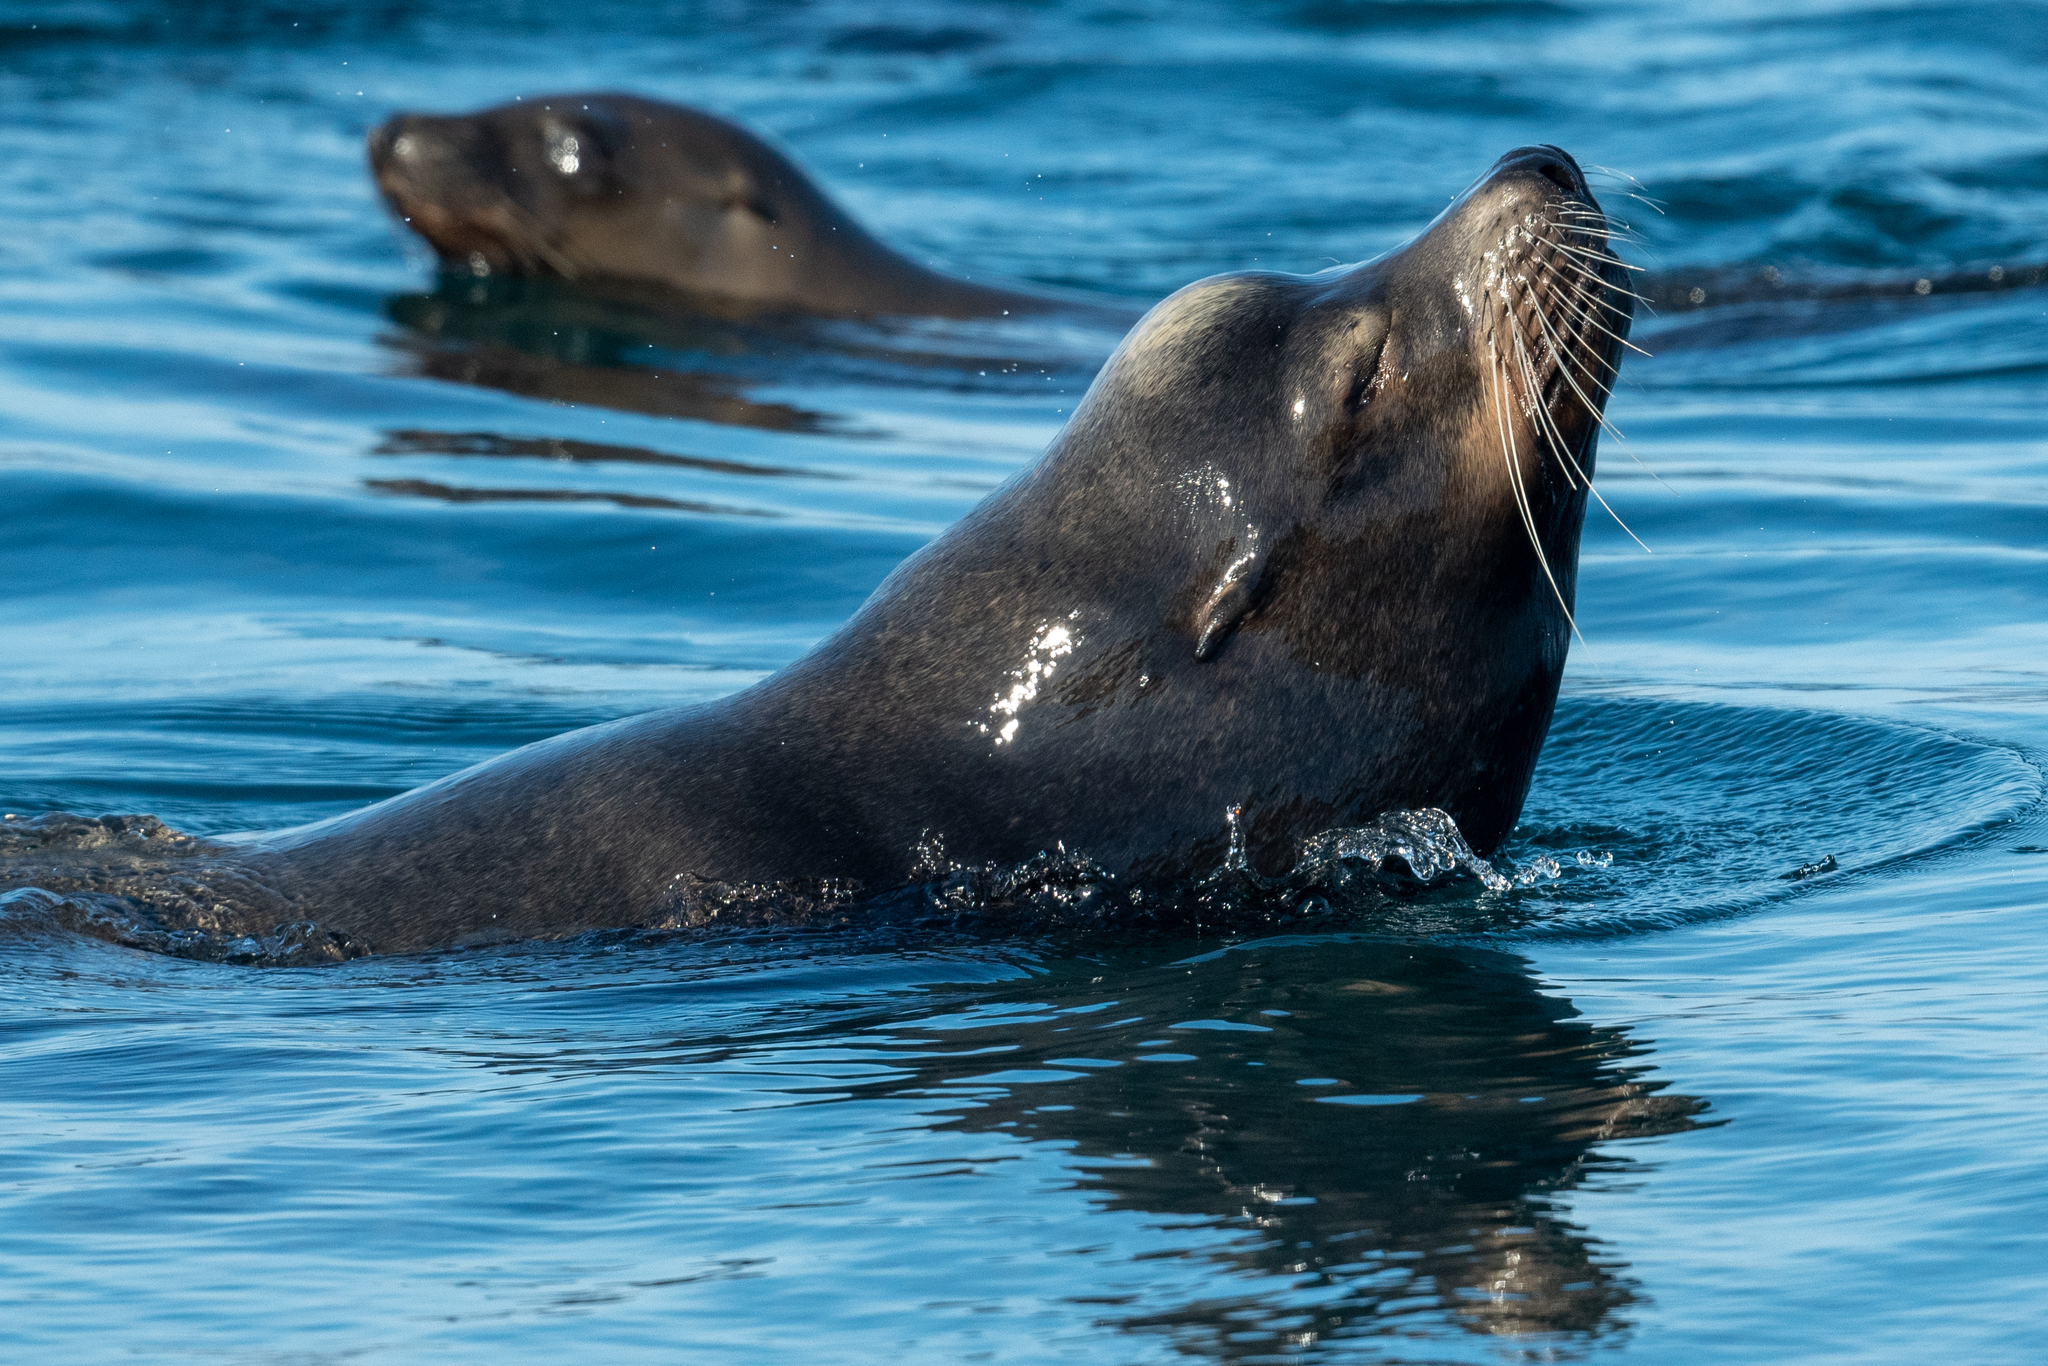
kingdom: Animalia
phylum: Chordata
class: Mammalia
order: Carnivora
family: Otariidae
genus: Zalophus
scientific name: Zalophus californianus
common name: California sea lion
